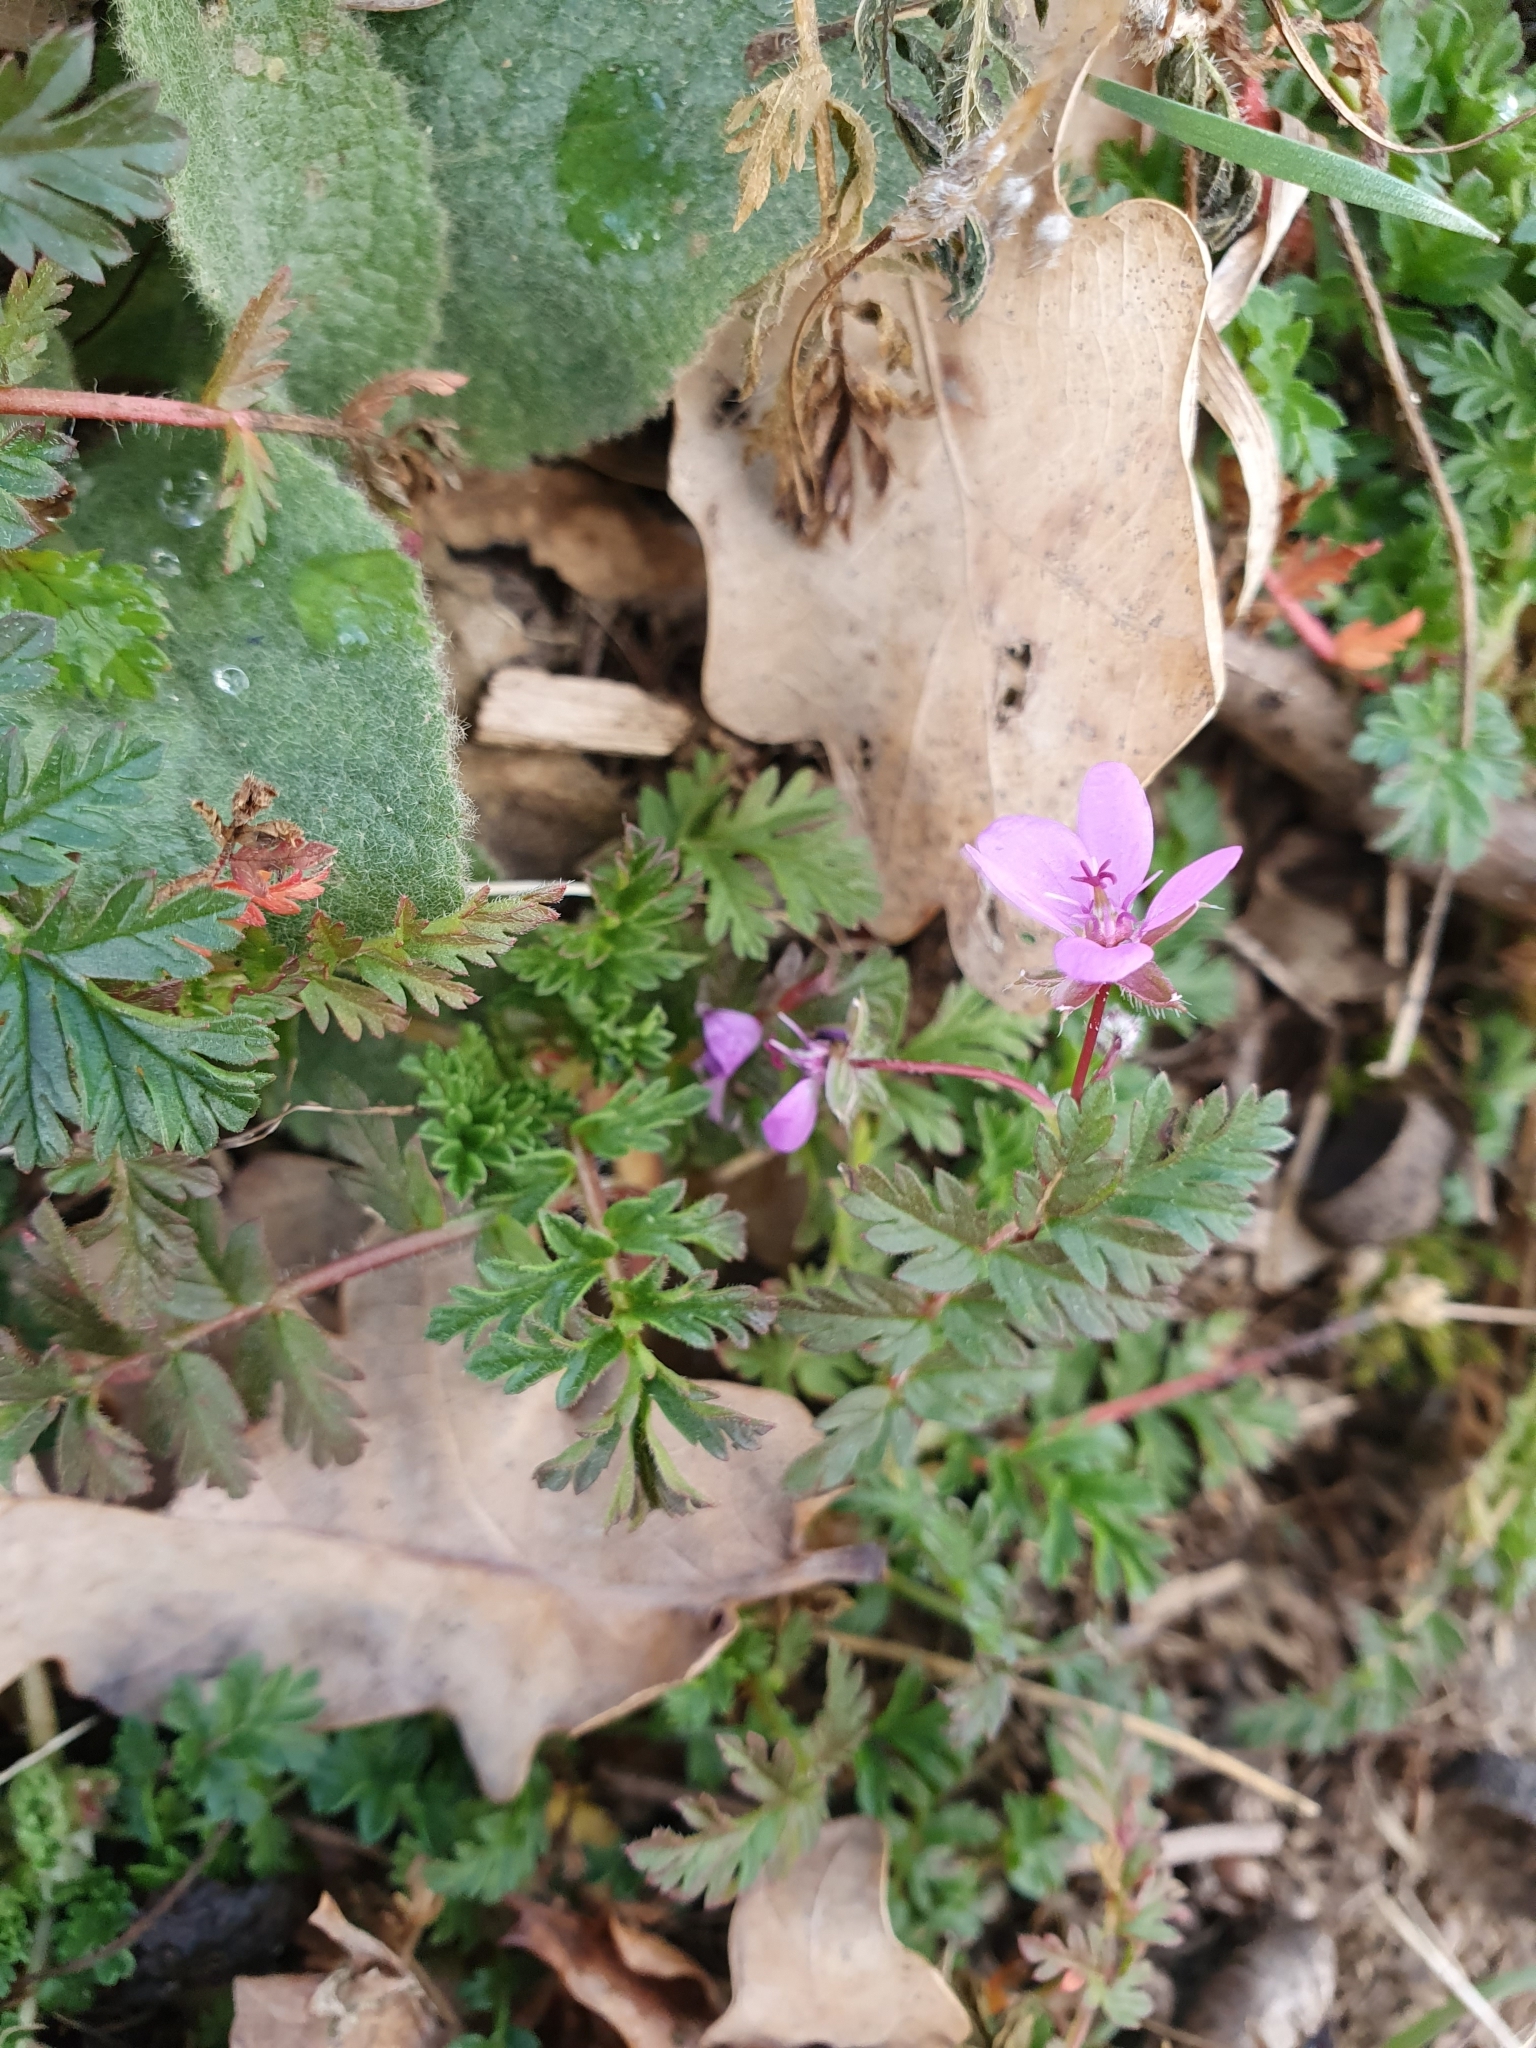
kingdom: Plantae
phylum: Tracheophyta
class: Magnoliopsida
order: Geraniales
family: Geraniaceae
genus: Erodium
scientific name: Erodium cicutarium
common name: Common stork's-bill
